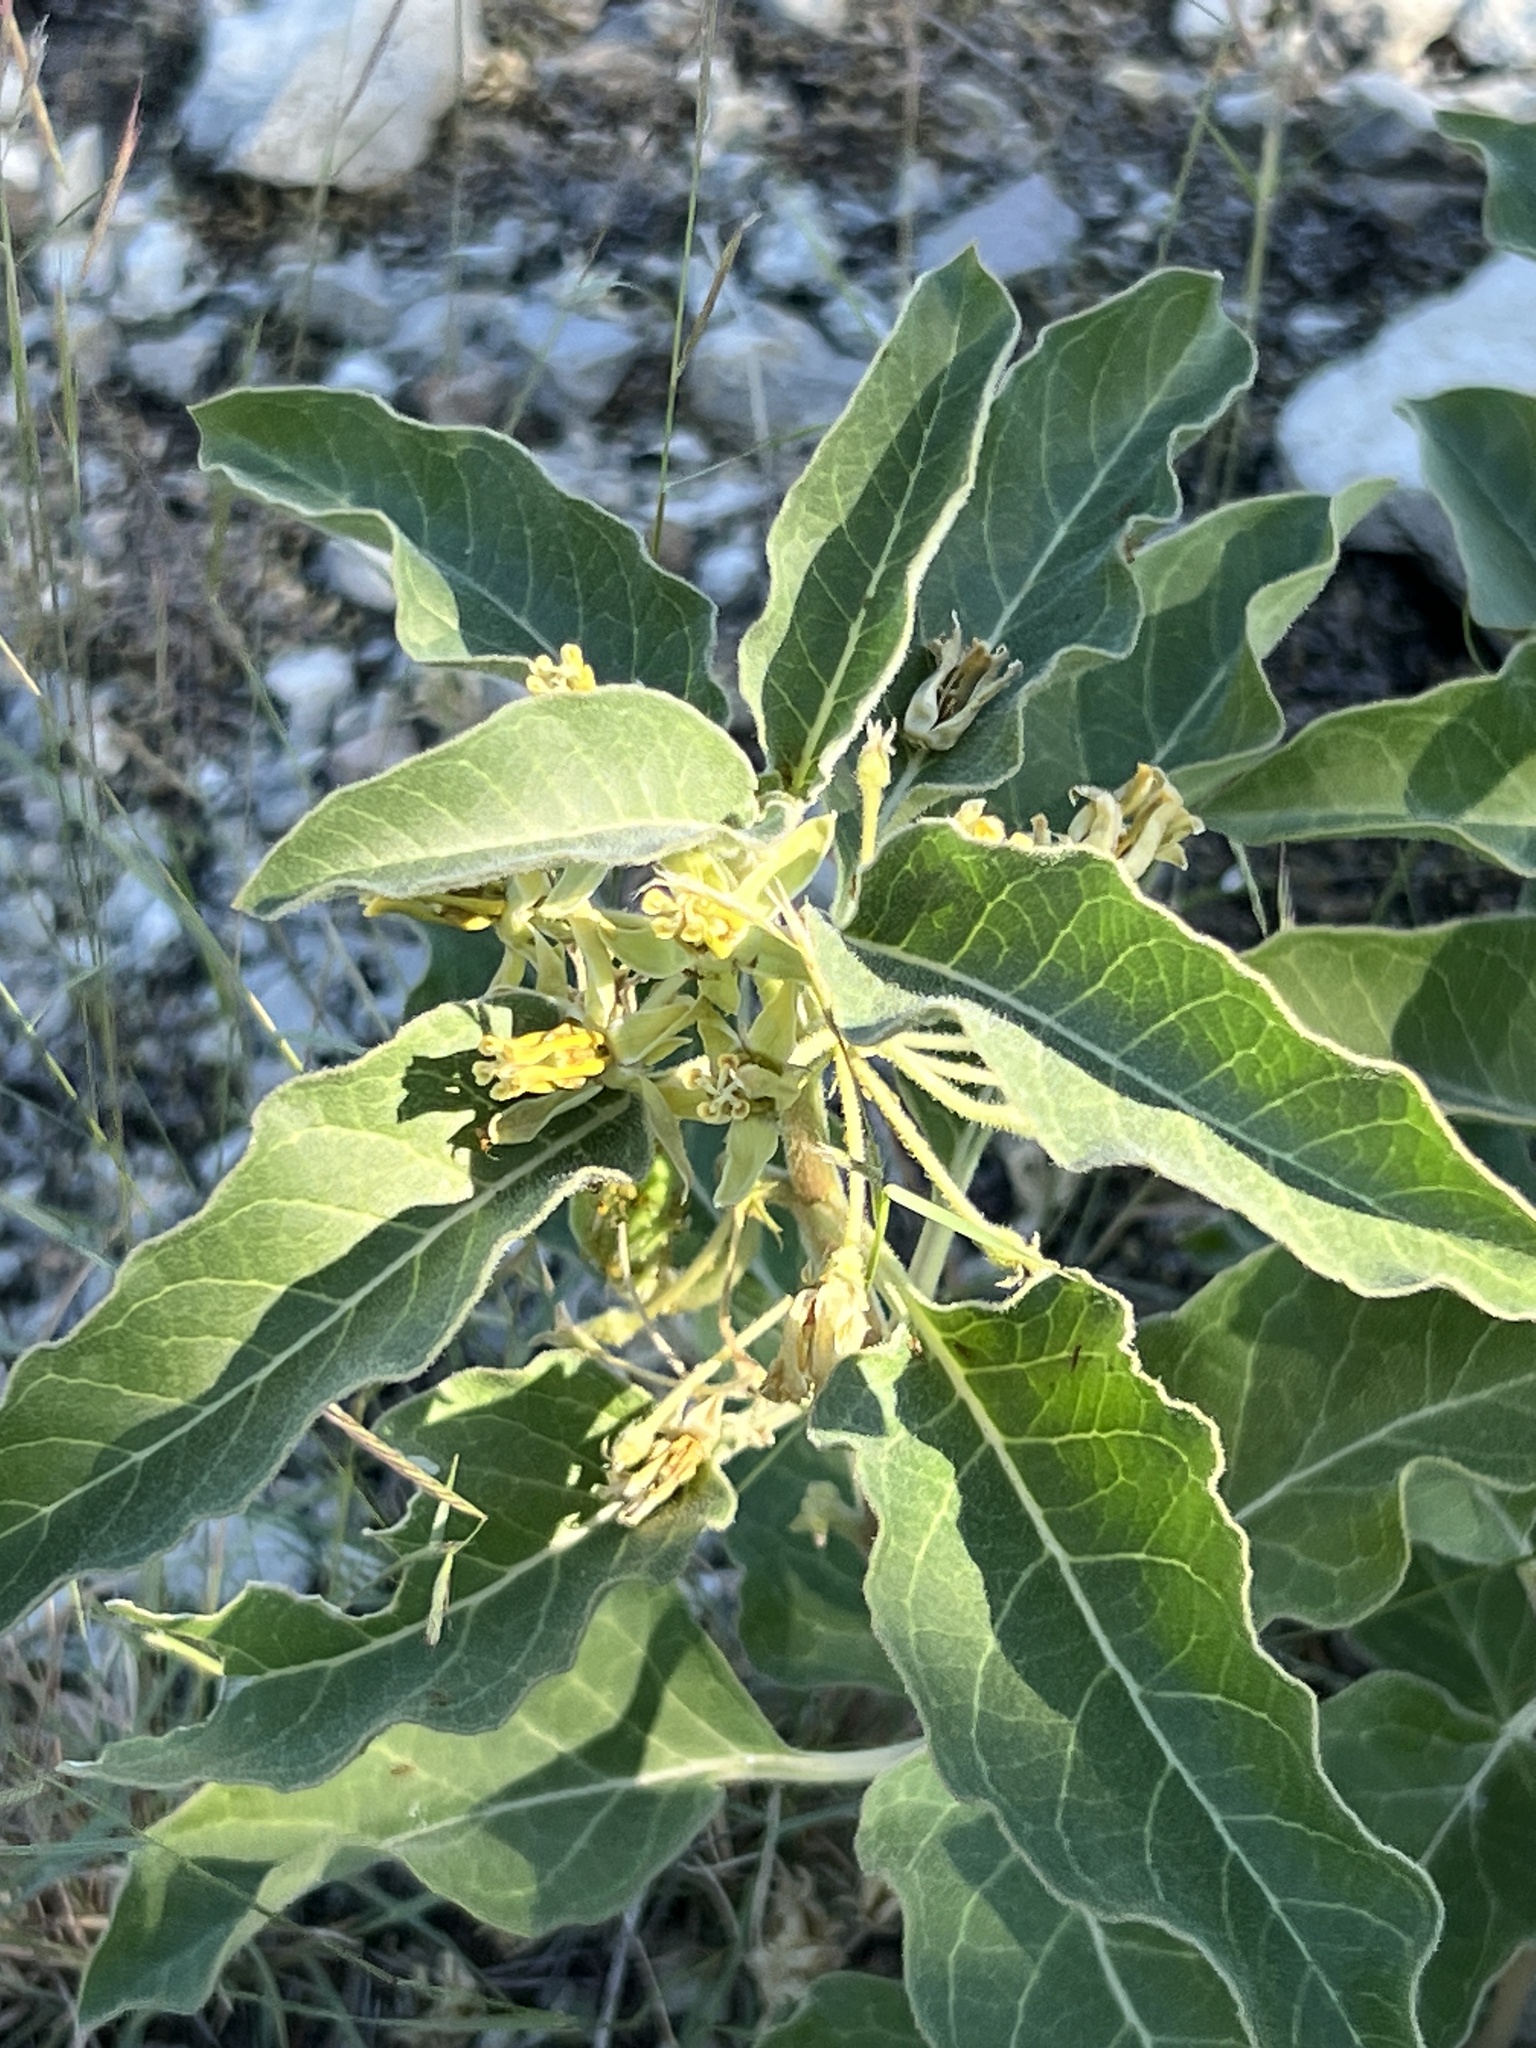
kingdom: Plantae
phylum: Tracheophyta
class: Magnoliopsida
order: Gentianales
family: Apocynaceae
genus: Asclepias
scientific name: Asclepias oenotheroides
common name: Zizotes milkweed
